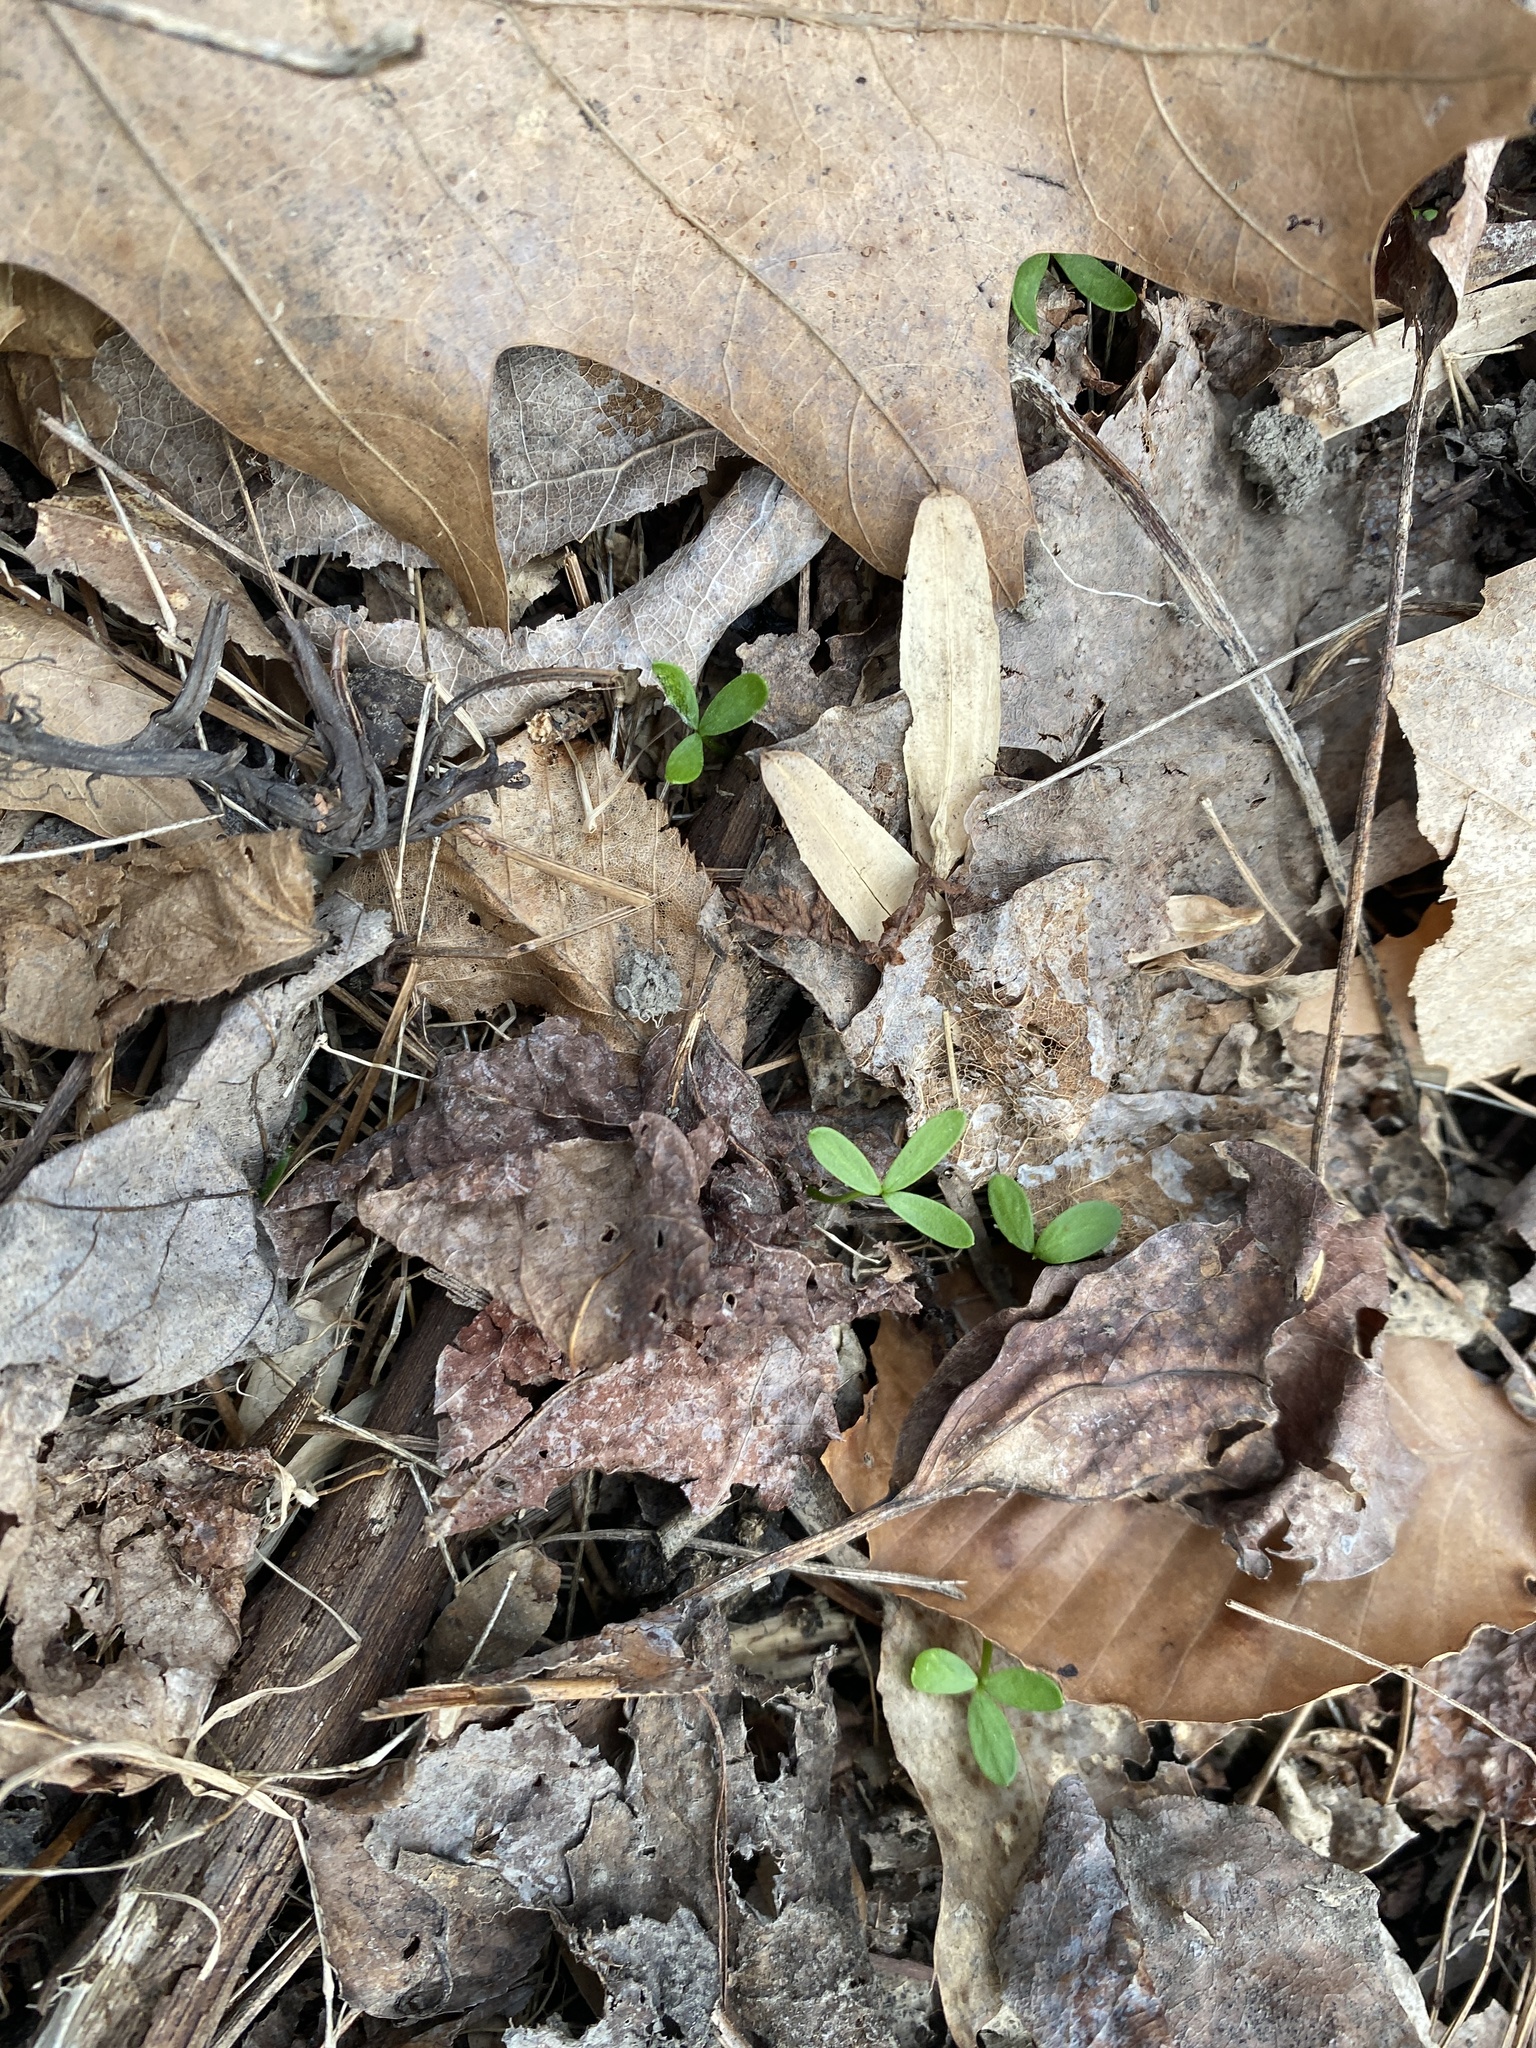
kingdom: Plantae
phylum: Tracheophyta
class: Magnoliopsida
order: Brassicales
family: Limnanthaceae
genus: Floerkea
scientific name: Floerkea proserpinacoides
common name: False mermaid
